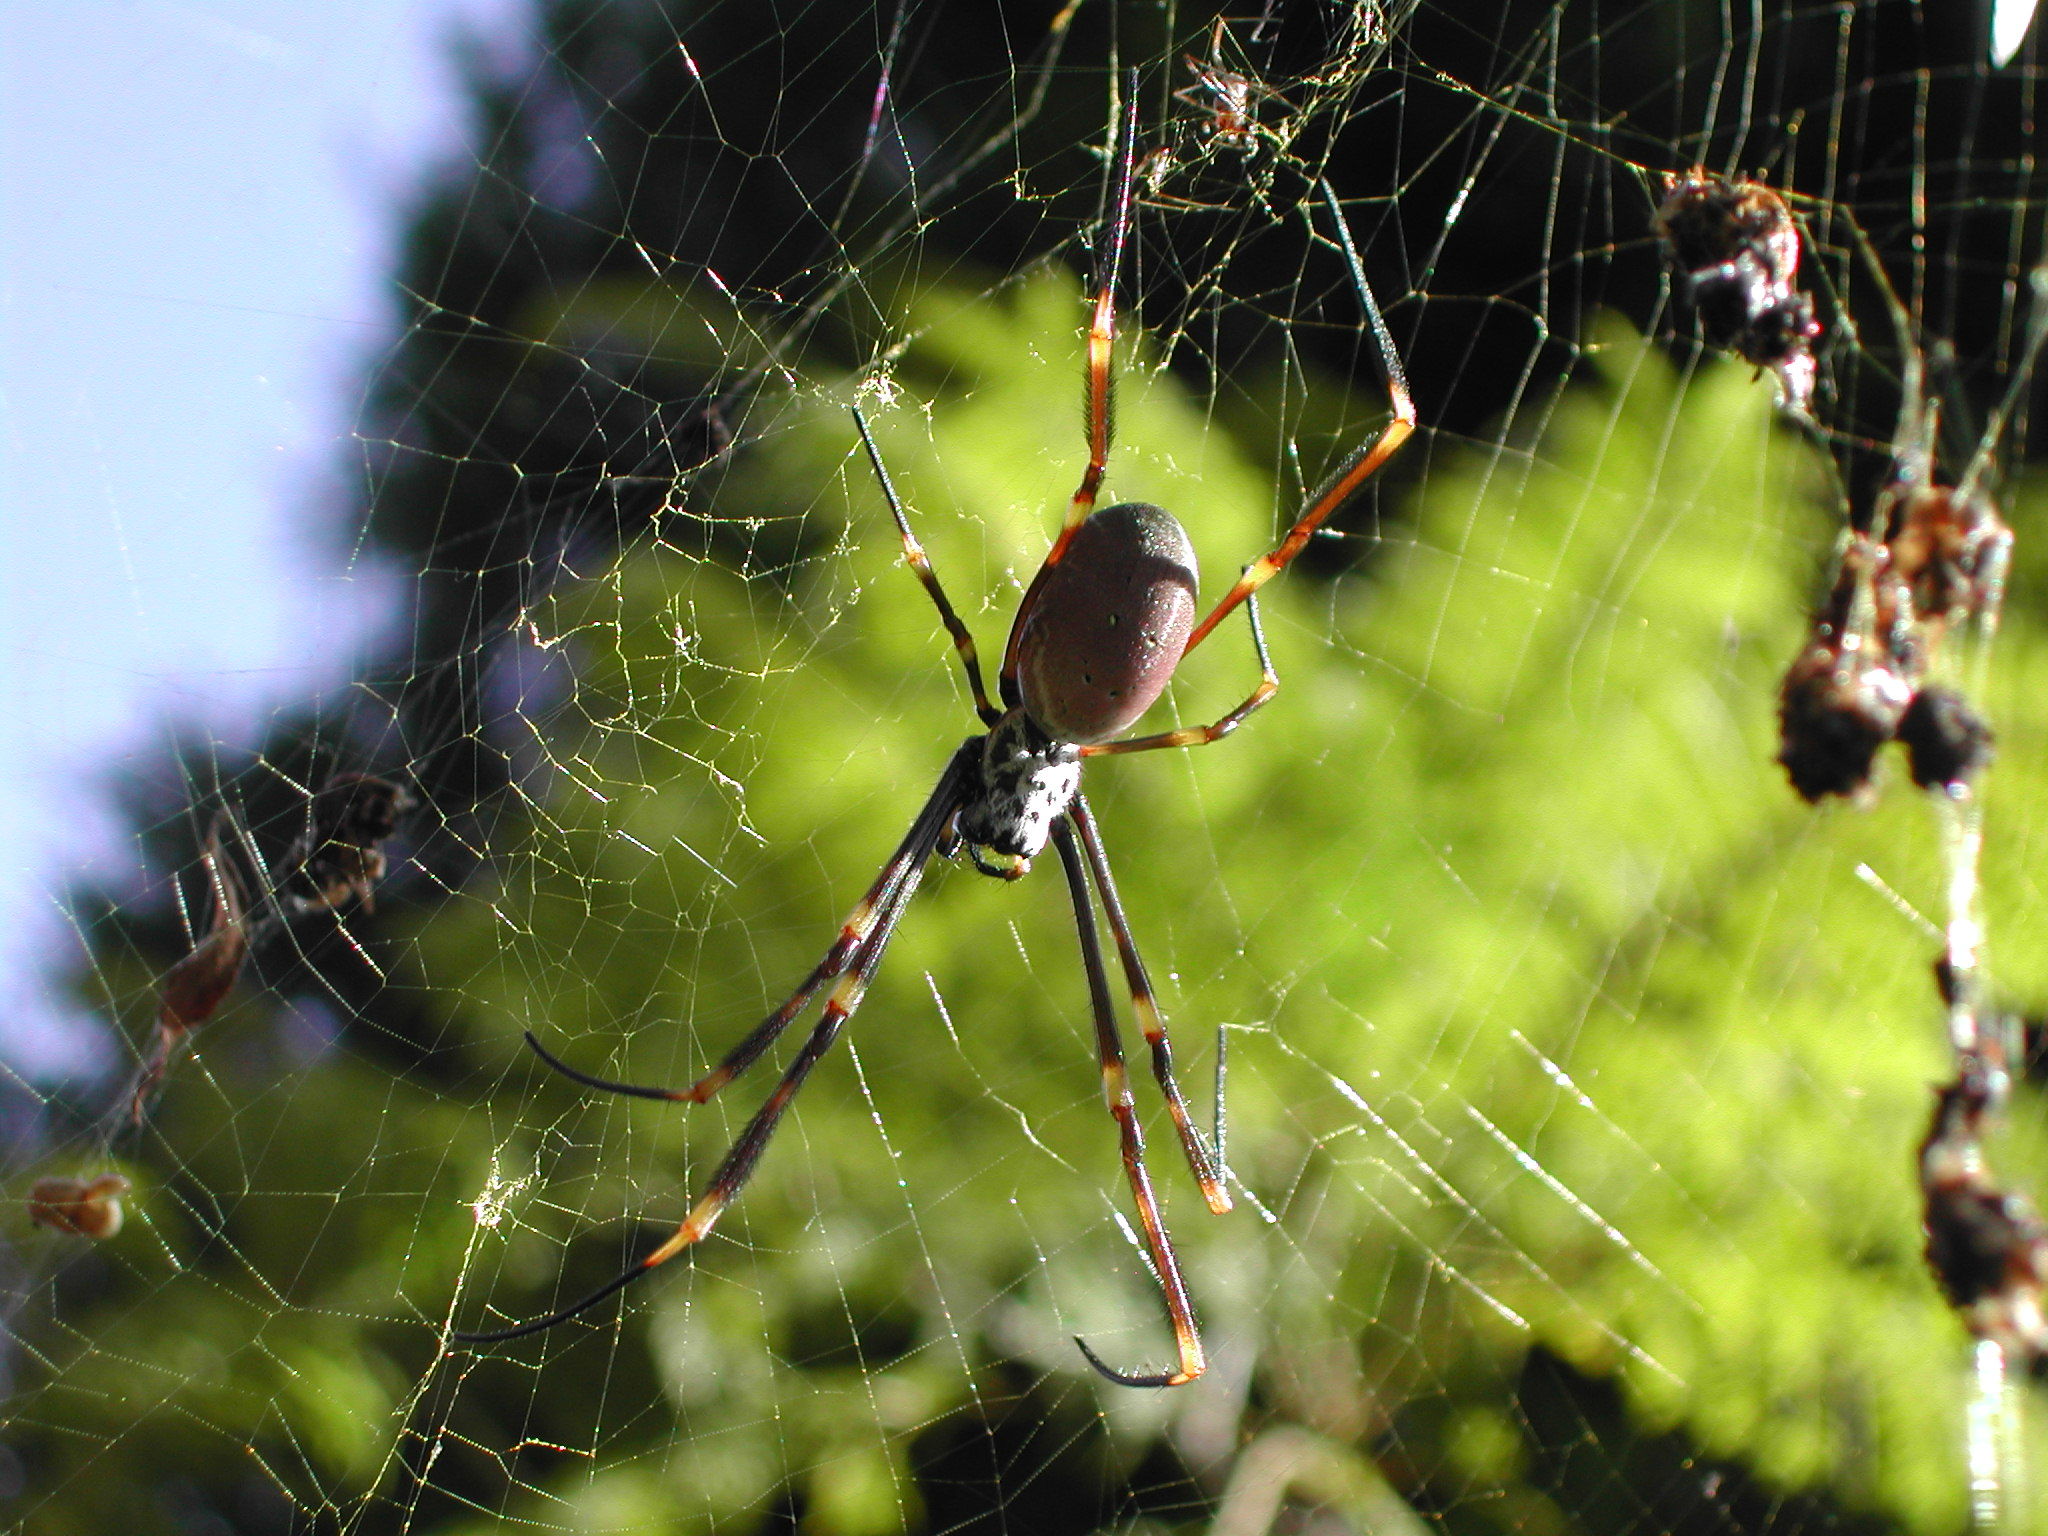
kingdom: Animalia
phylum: Arthropoda
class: Arachnida
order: Araneae
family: Araneidae
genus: Trichonephila
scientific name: Trichonephila plumipes
